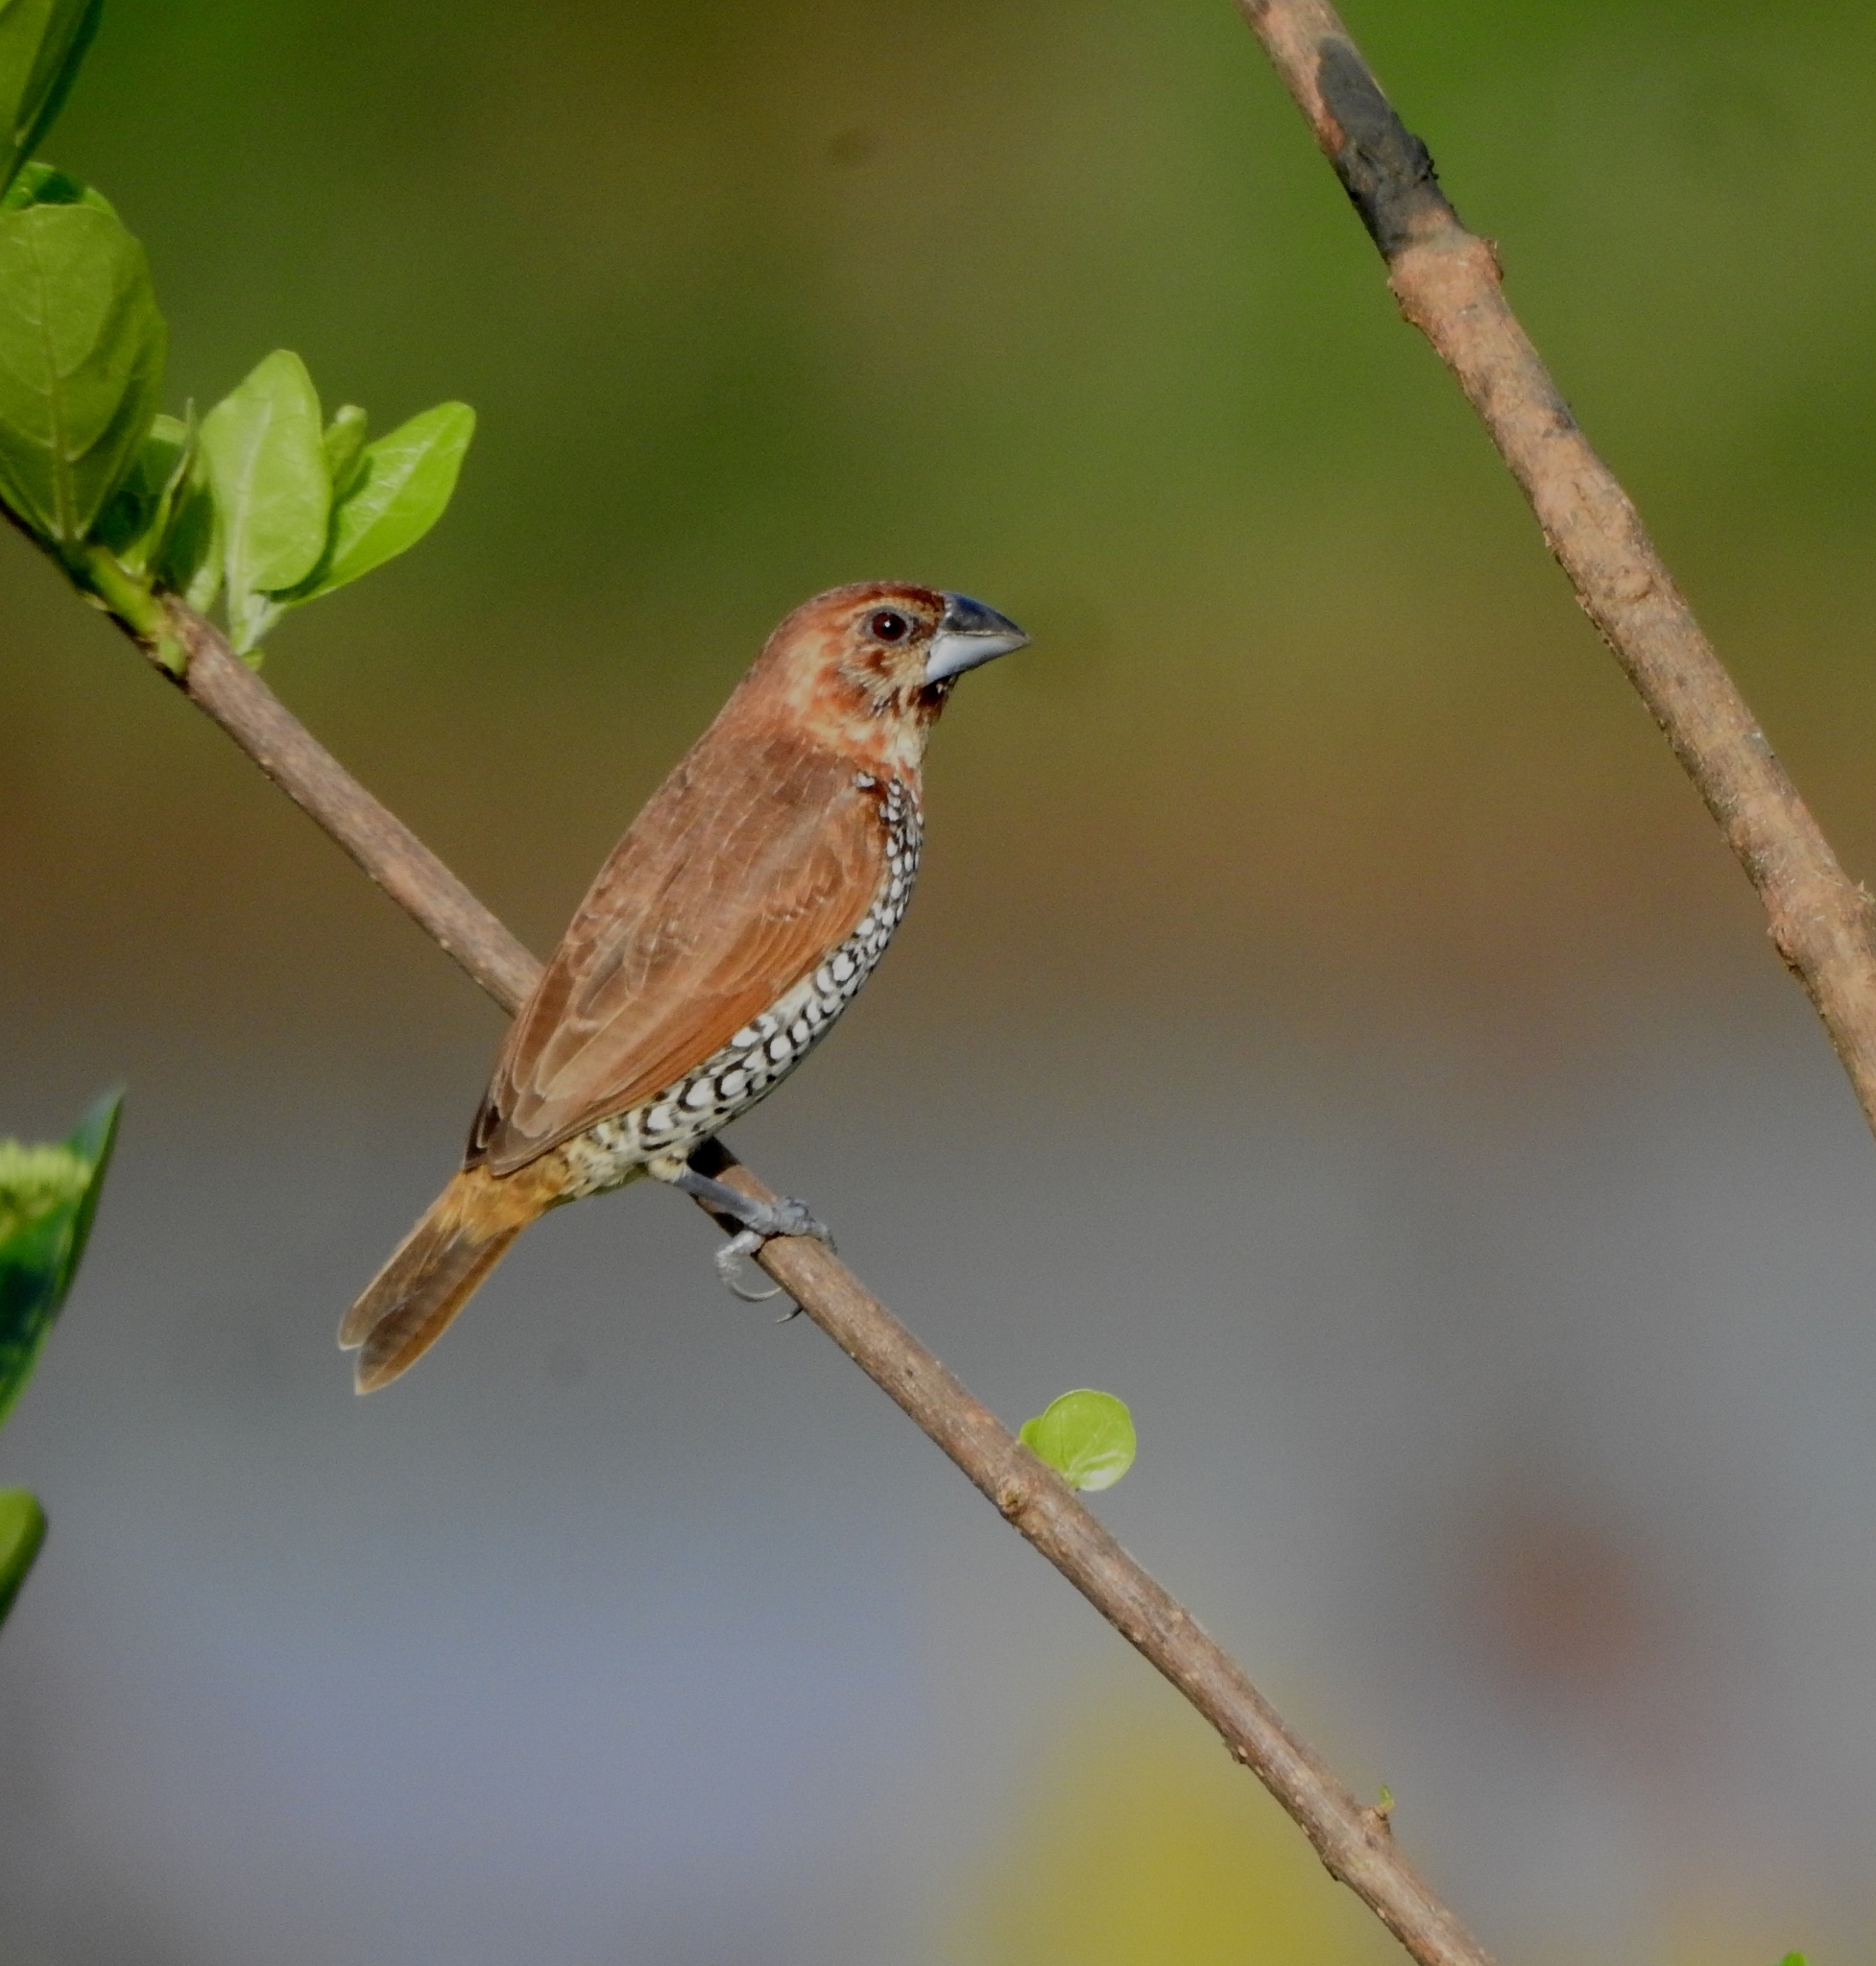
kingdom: Animalia
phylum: Chordata
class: Aves
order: Passeriformes
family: Estrildidae
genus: Lonchura
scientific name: Lonchura punctulata
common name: Scaly-breasted munia
